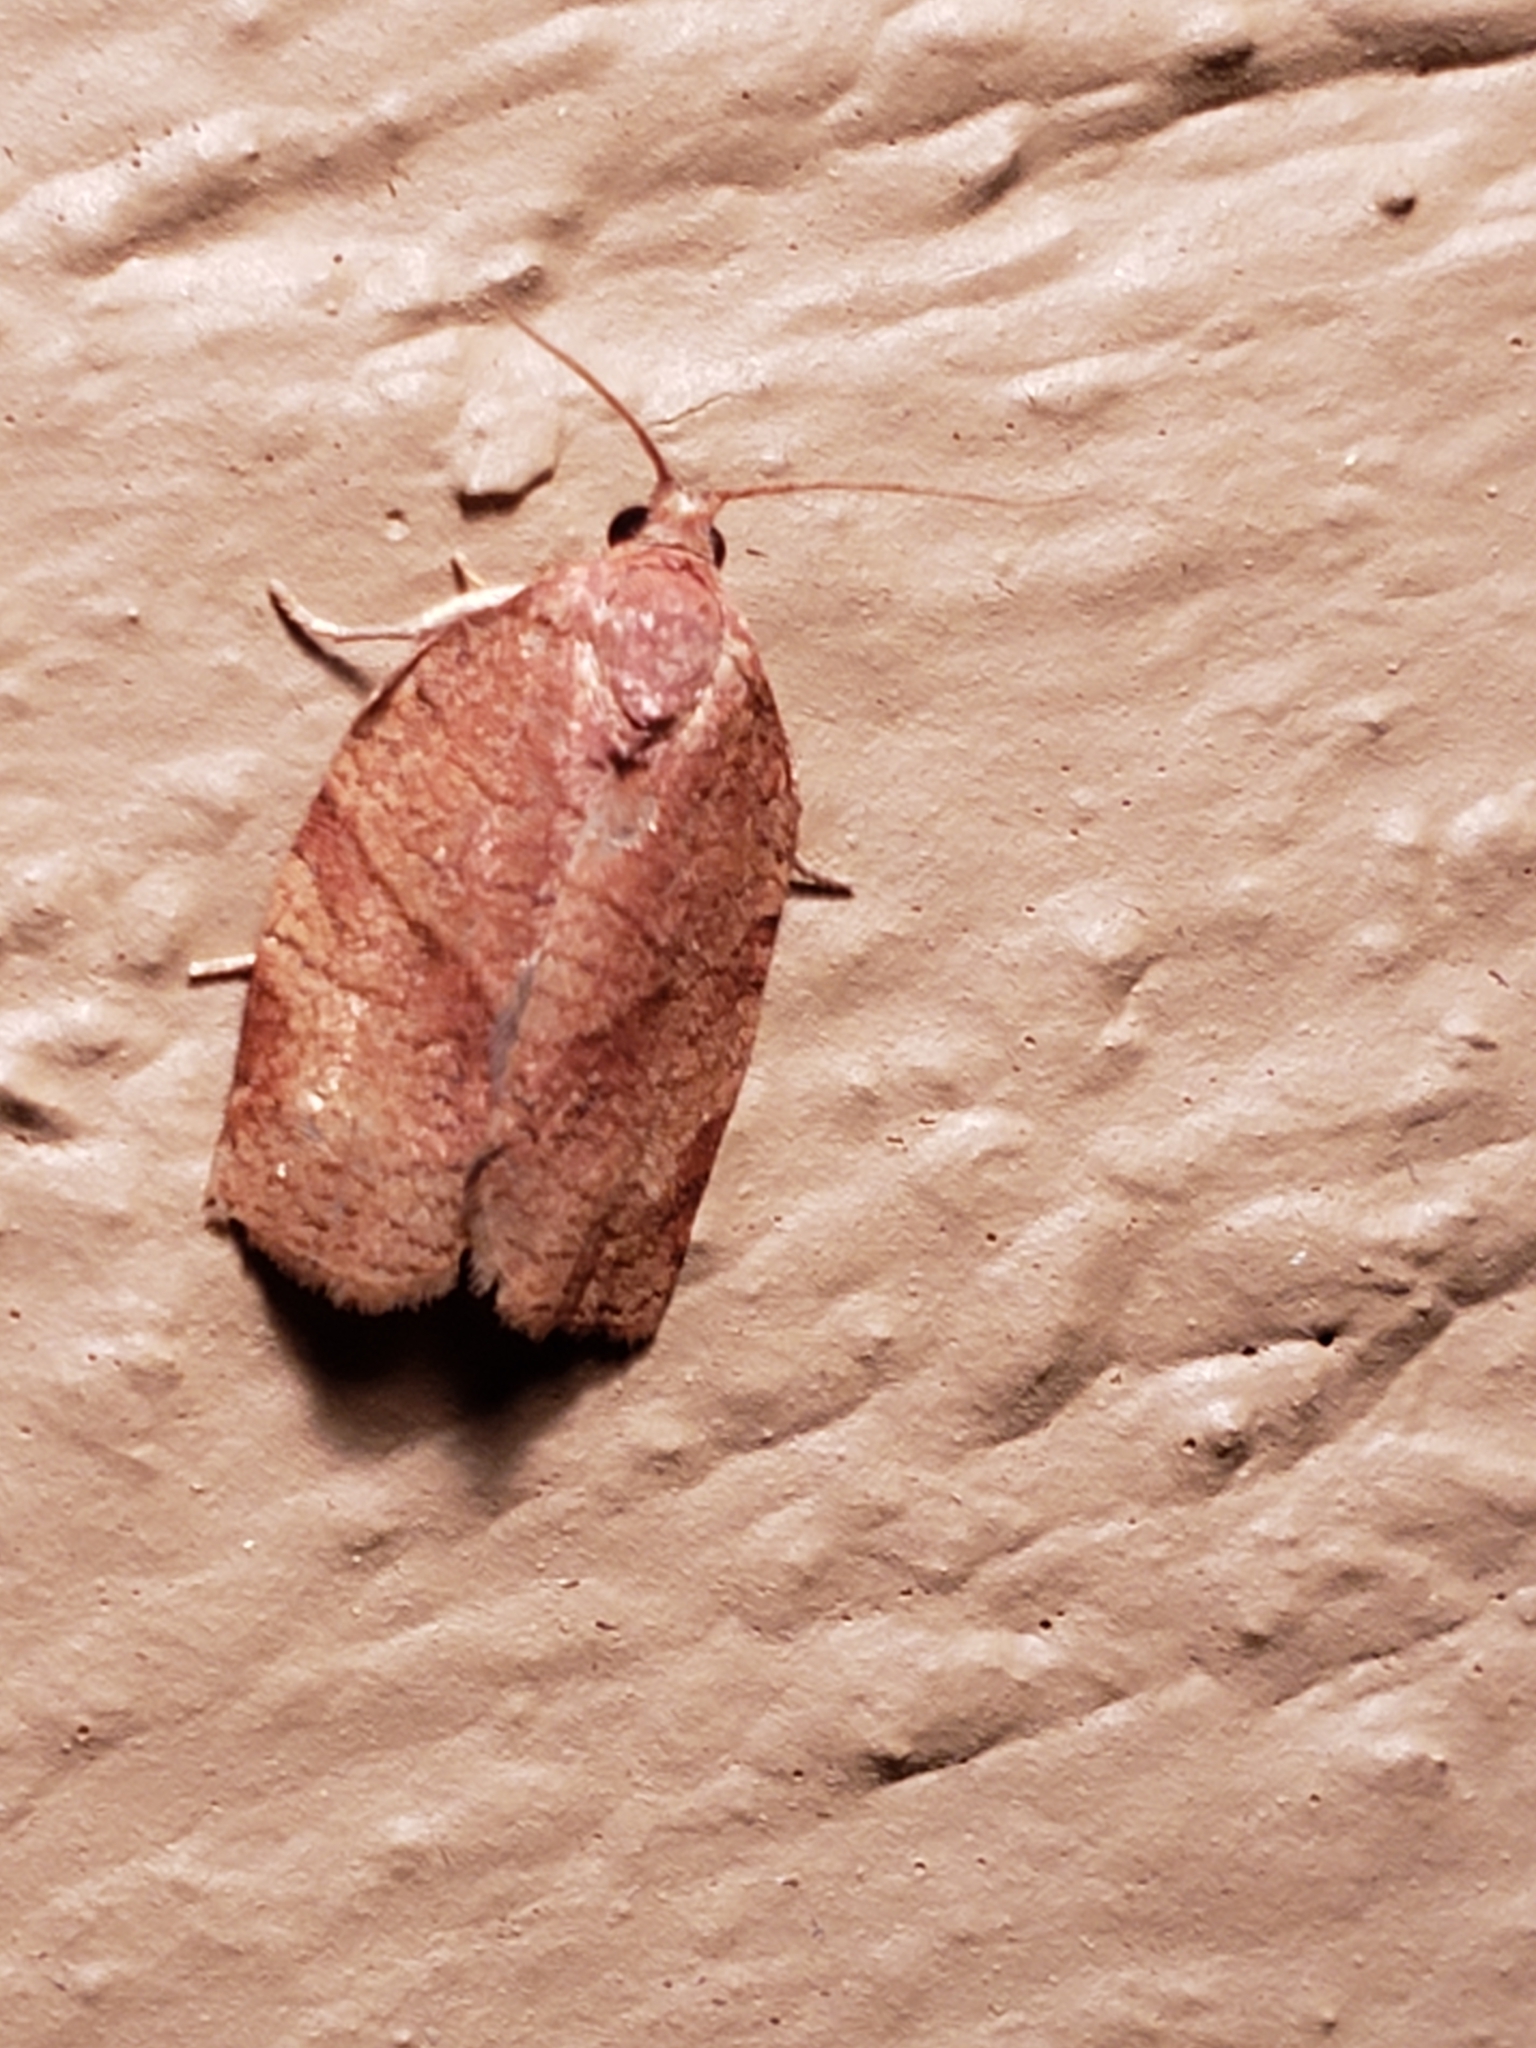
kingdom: Animalia
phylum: Arthropoda
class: Insecta
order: Lepidoptera
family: Tortricidae
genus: Choristoneura
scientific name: Choristoneura rosaceana
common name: Oblique-banded leafroller moth
